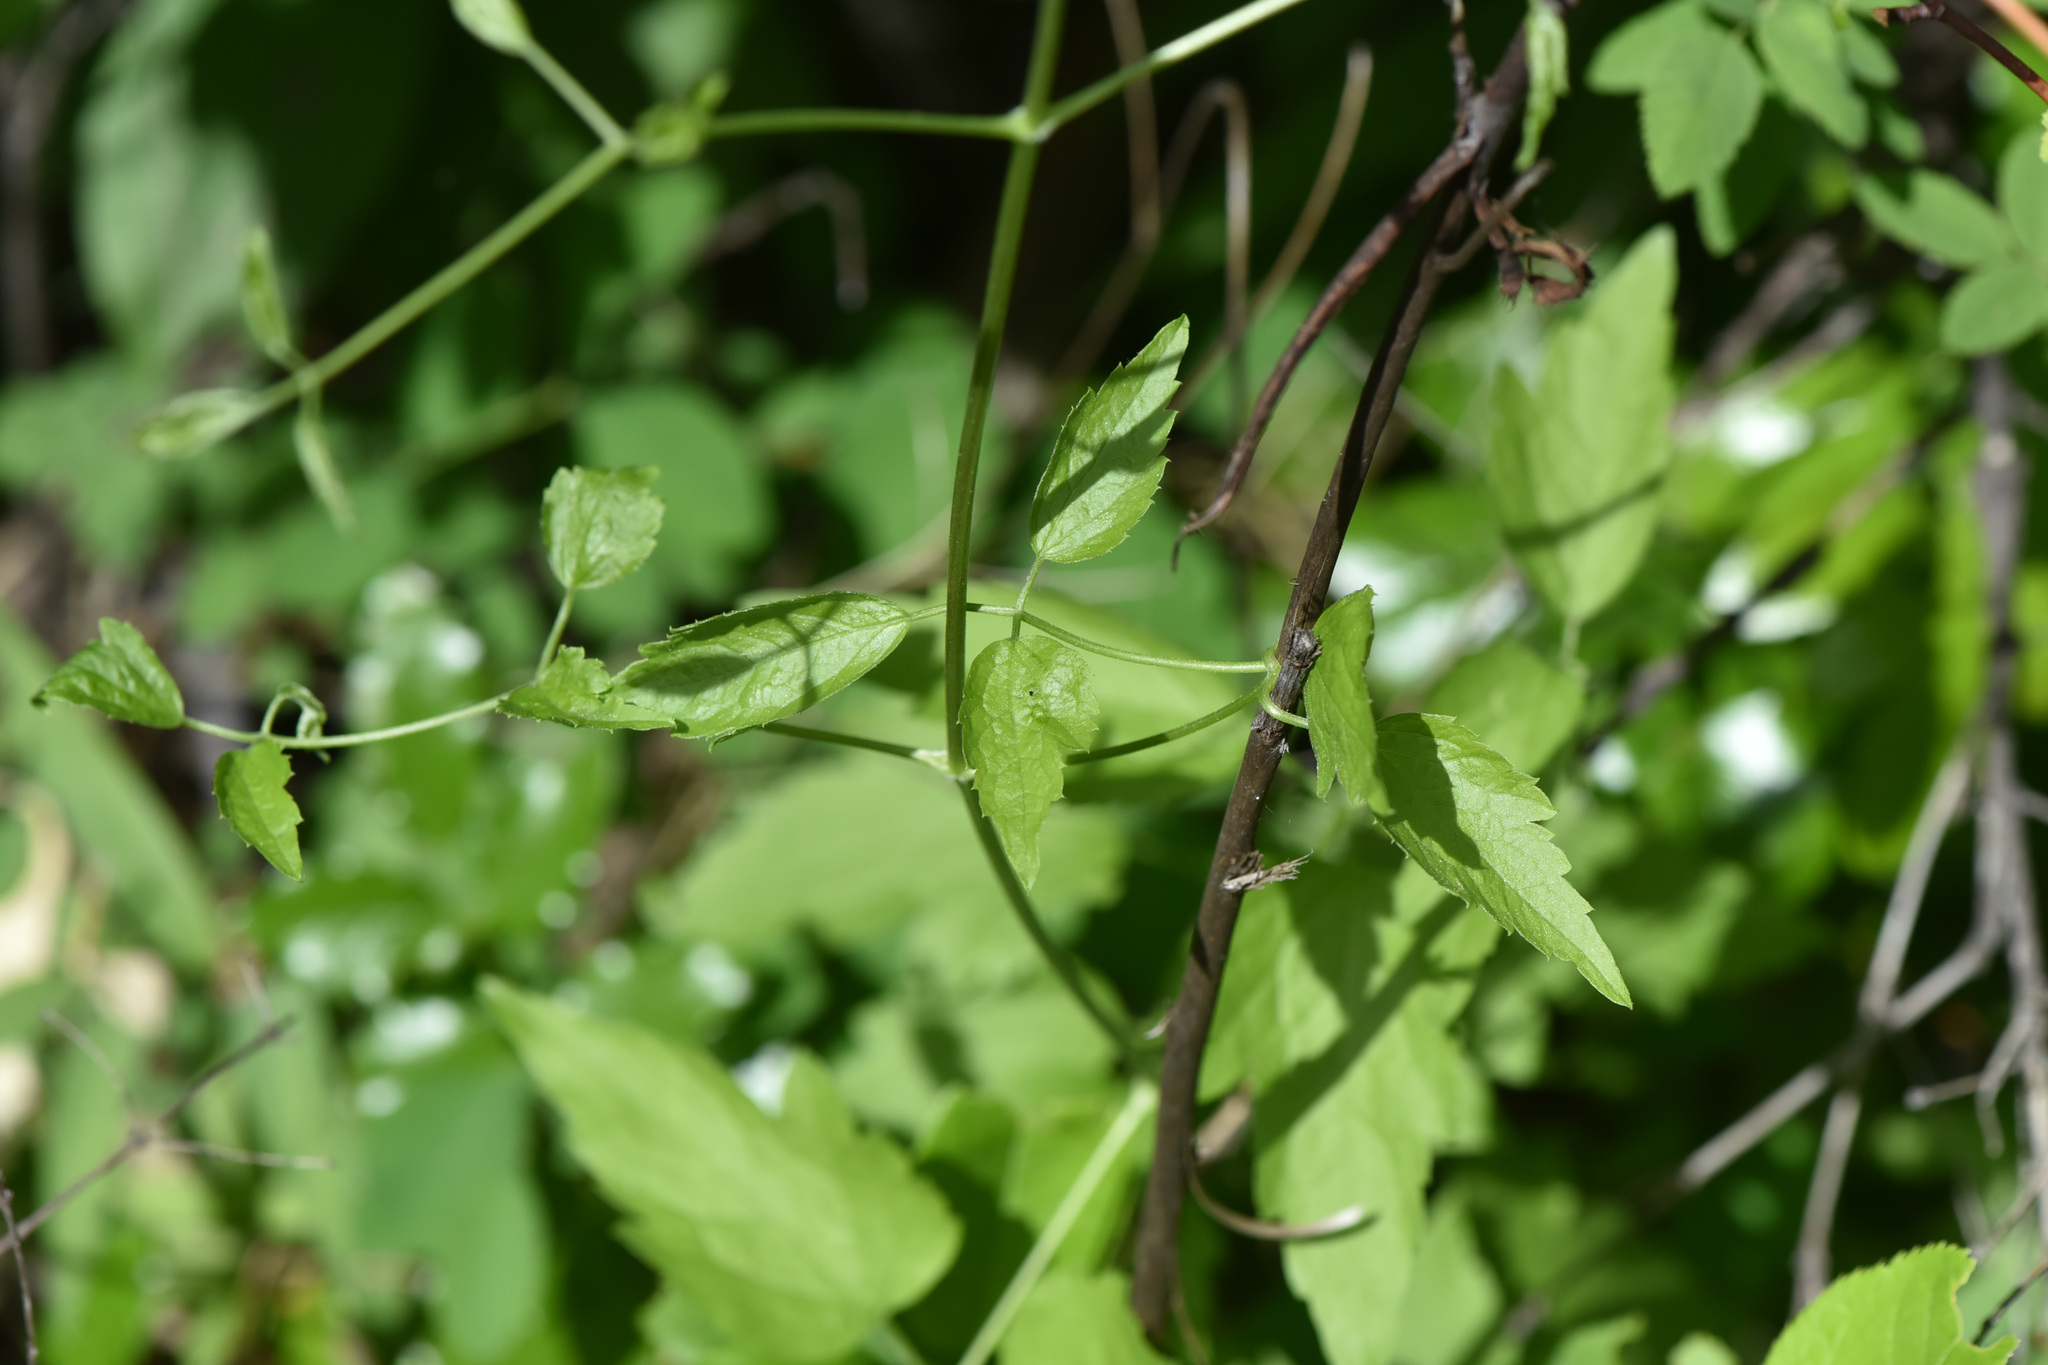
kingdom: Plantae
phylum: Tracheophyta
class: Magnoliopsida
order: Ranunculales
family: Ranunculaceae
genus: Clematis
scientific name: Clematis ligusticifolia
